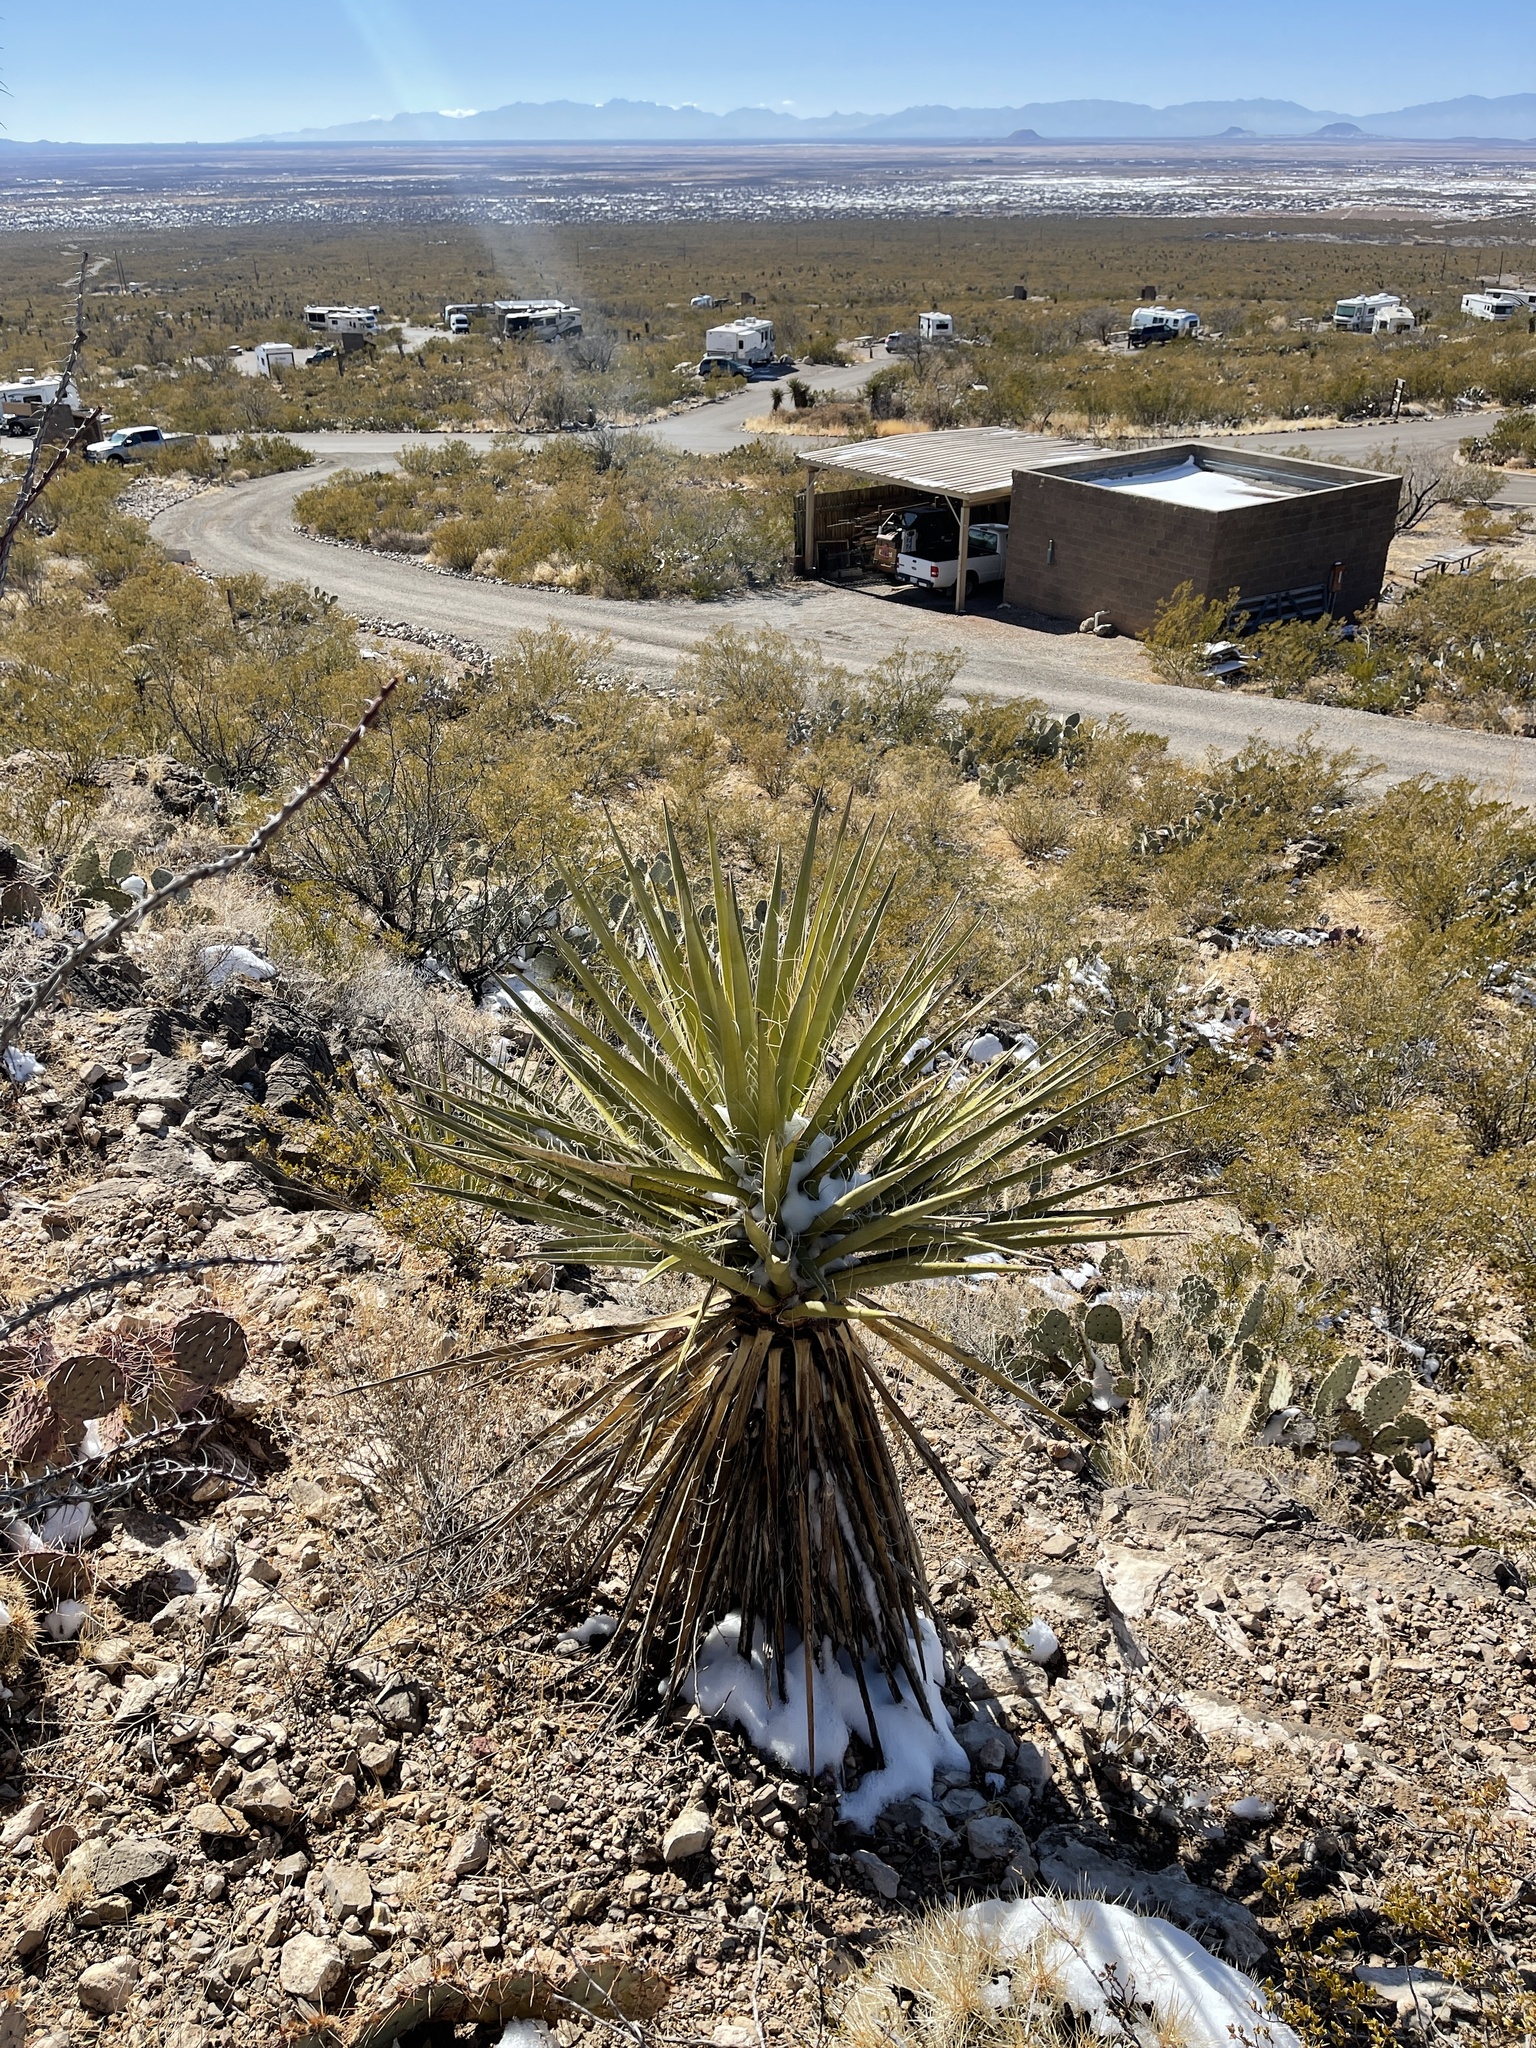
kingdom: Plantae
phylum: Tracheophyta
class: Liliopsida
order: Asparagales
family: Asparagaceae
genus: Yucca
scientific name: Yucca treculiana
